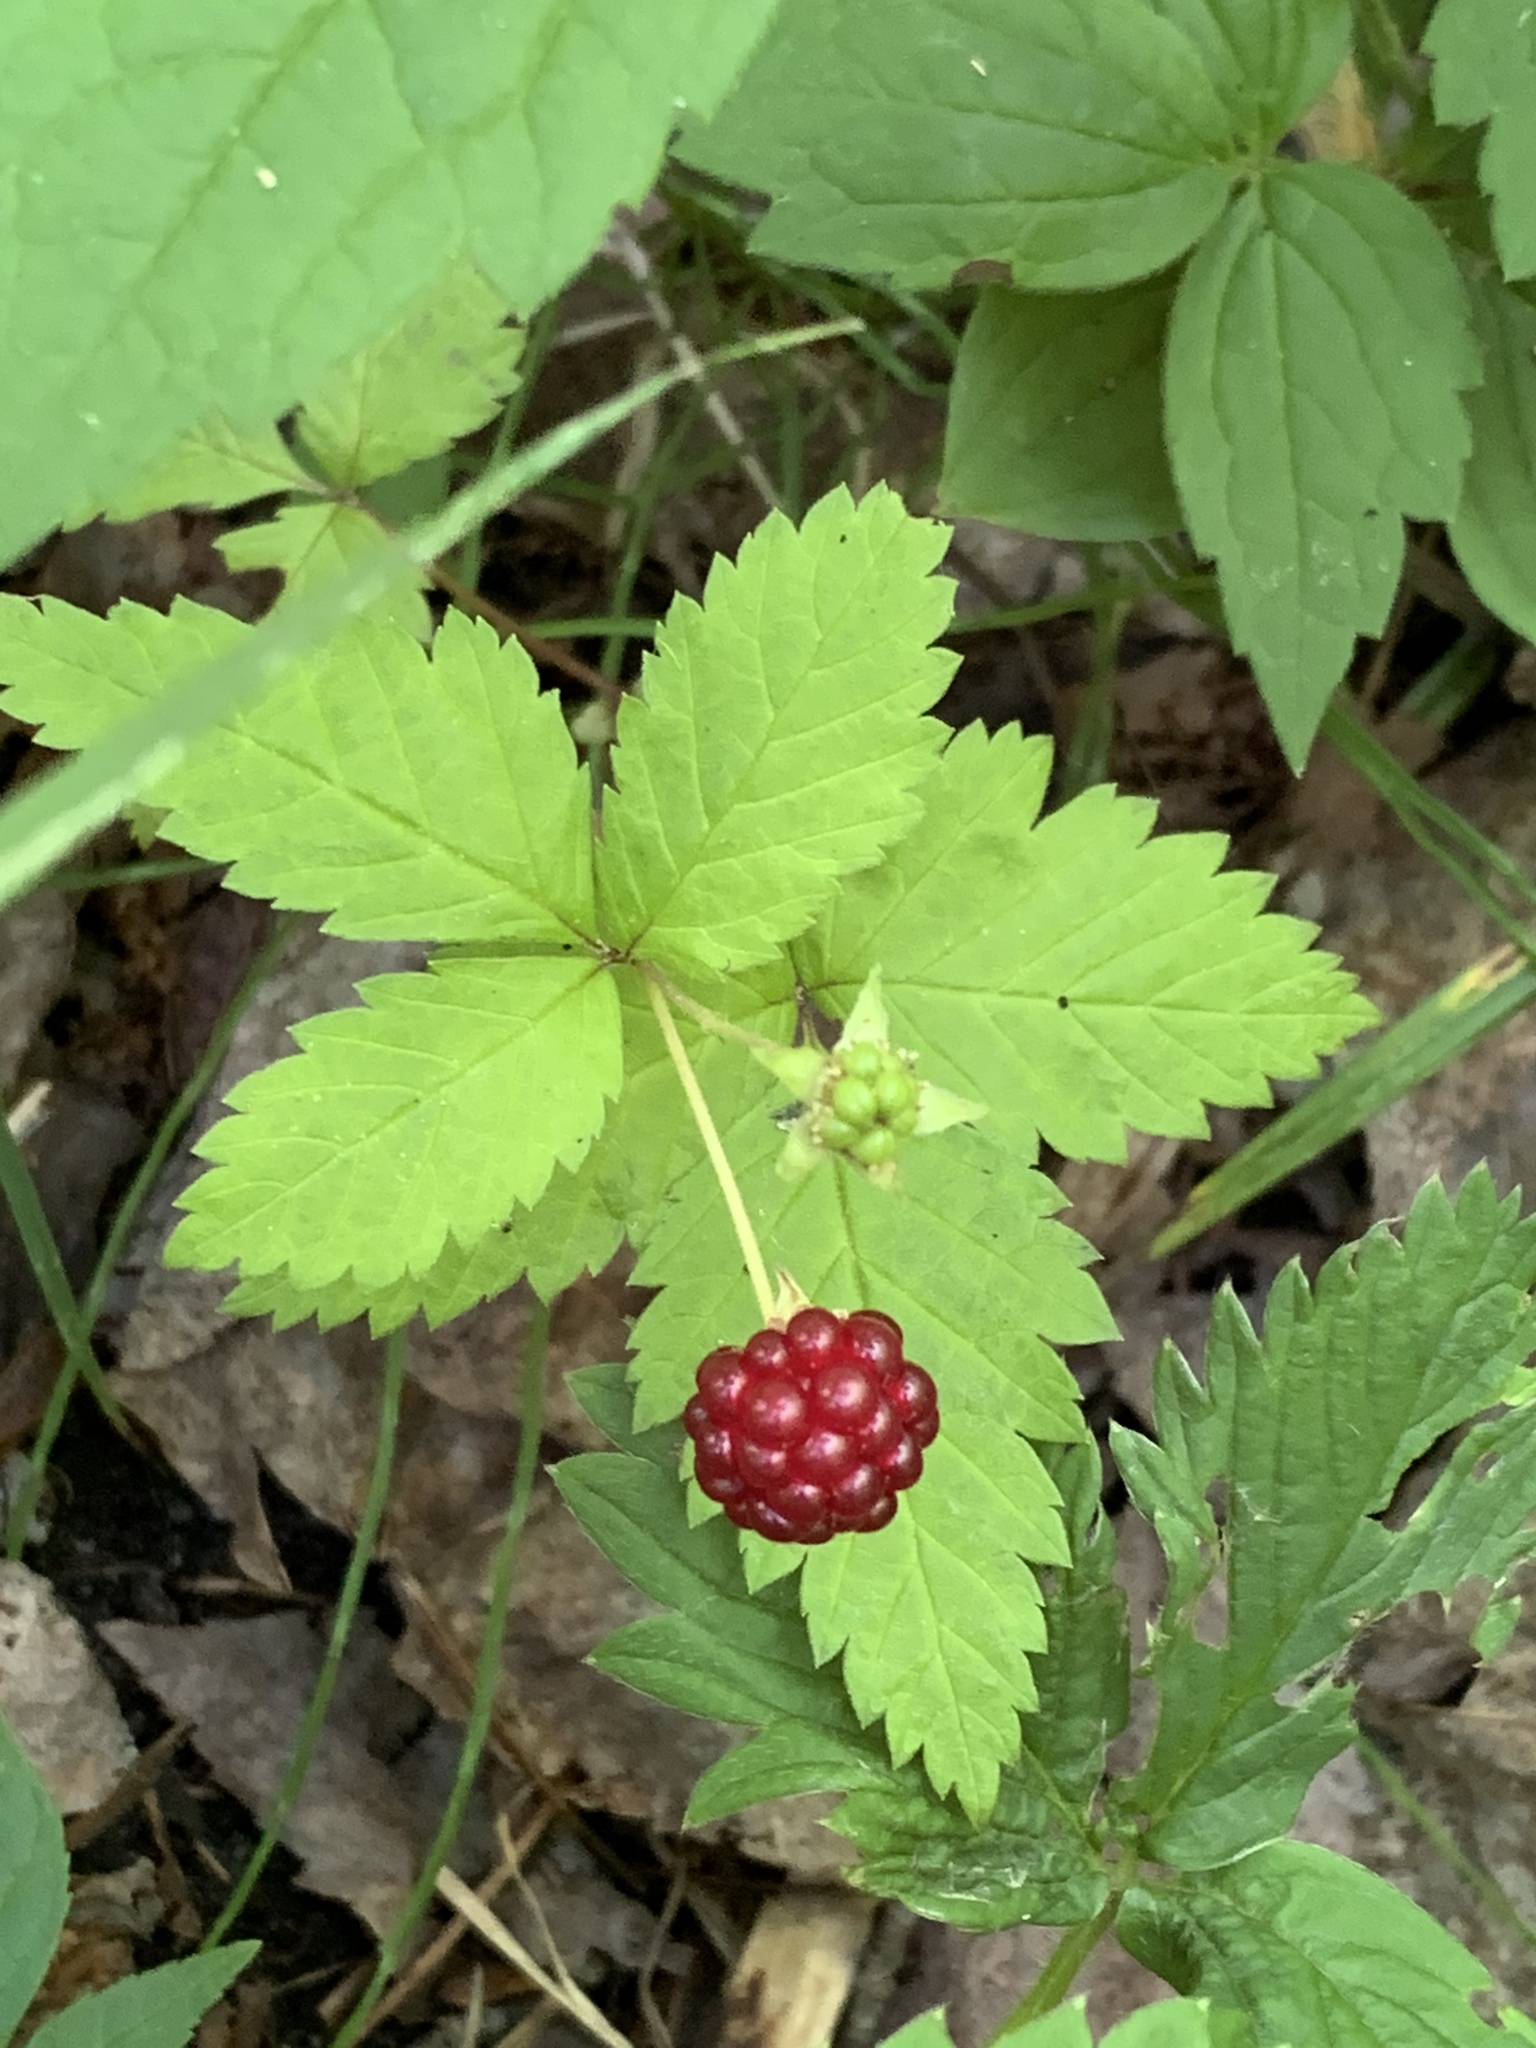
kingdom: Plantae
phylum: Tracheophyta
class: Magnoliopsida
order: Rosales
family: Rosaceae
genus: Rubus
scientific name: Rubus pubescens
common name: Dwarf raspberry
